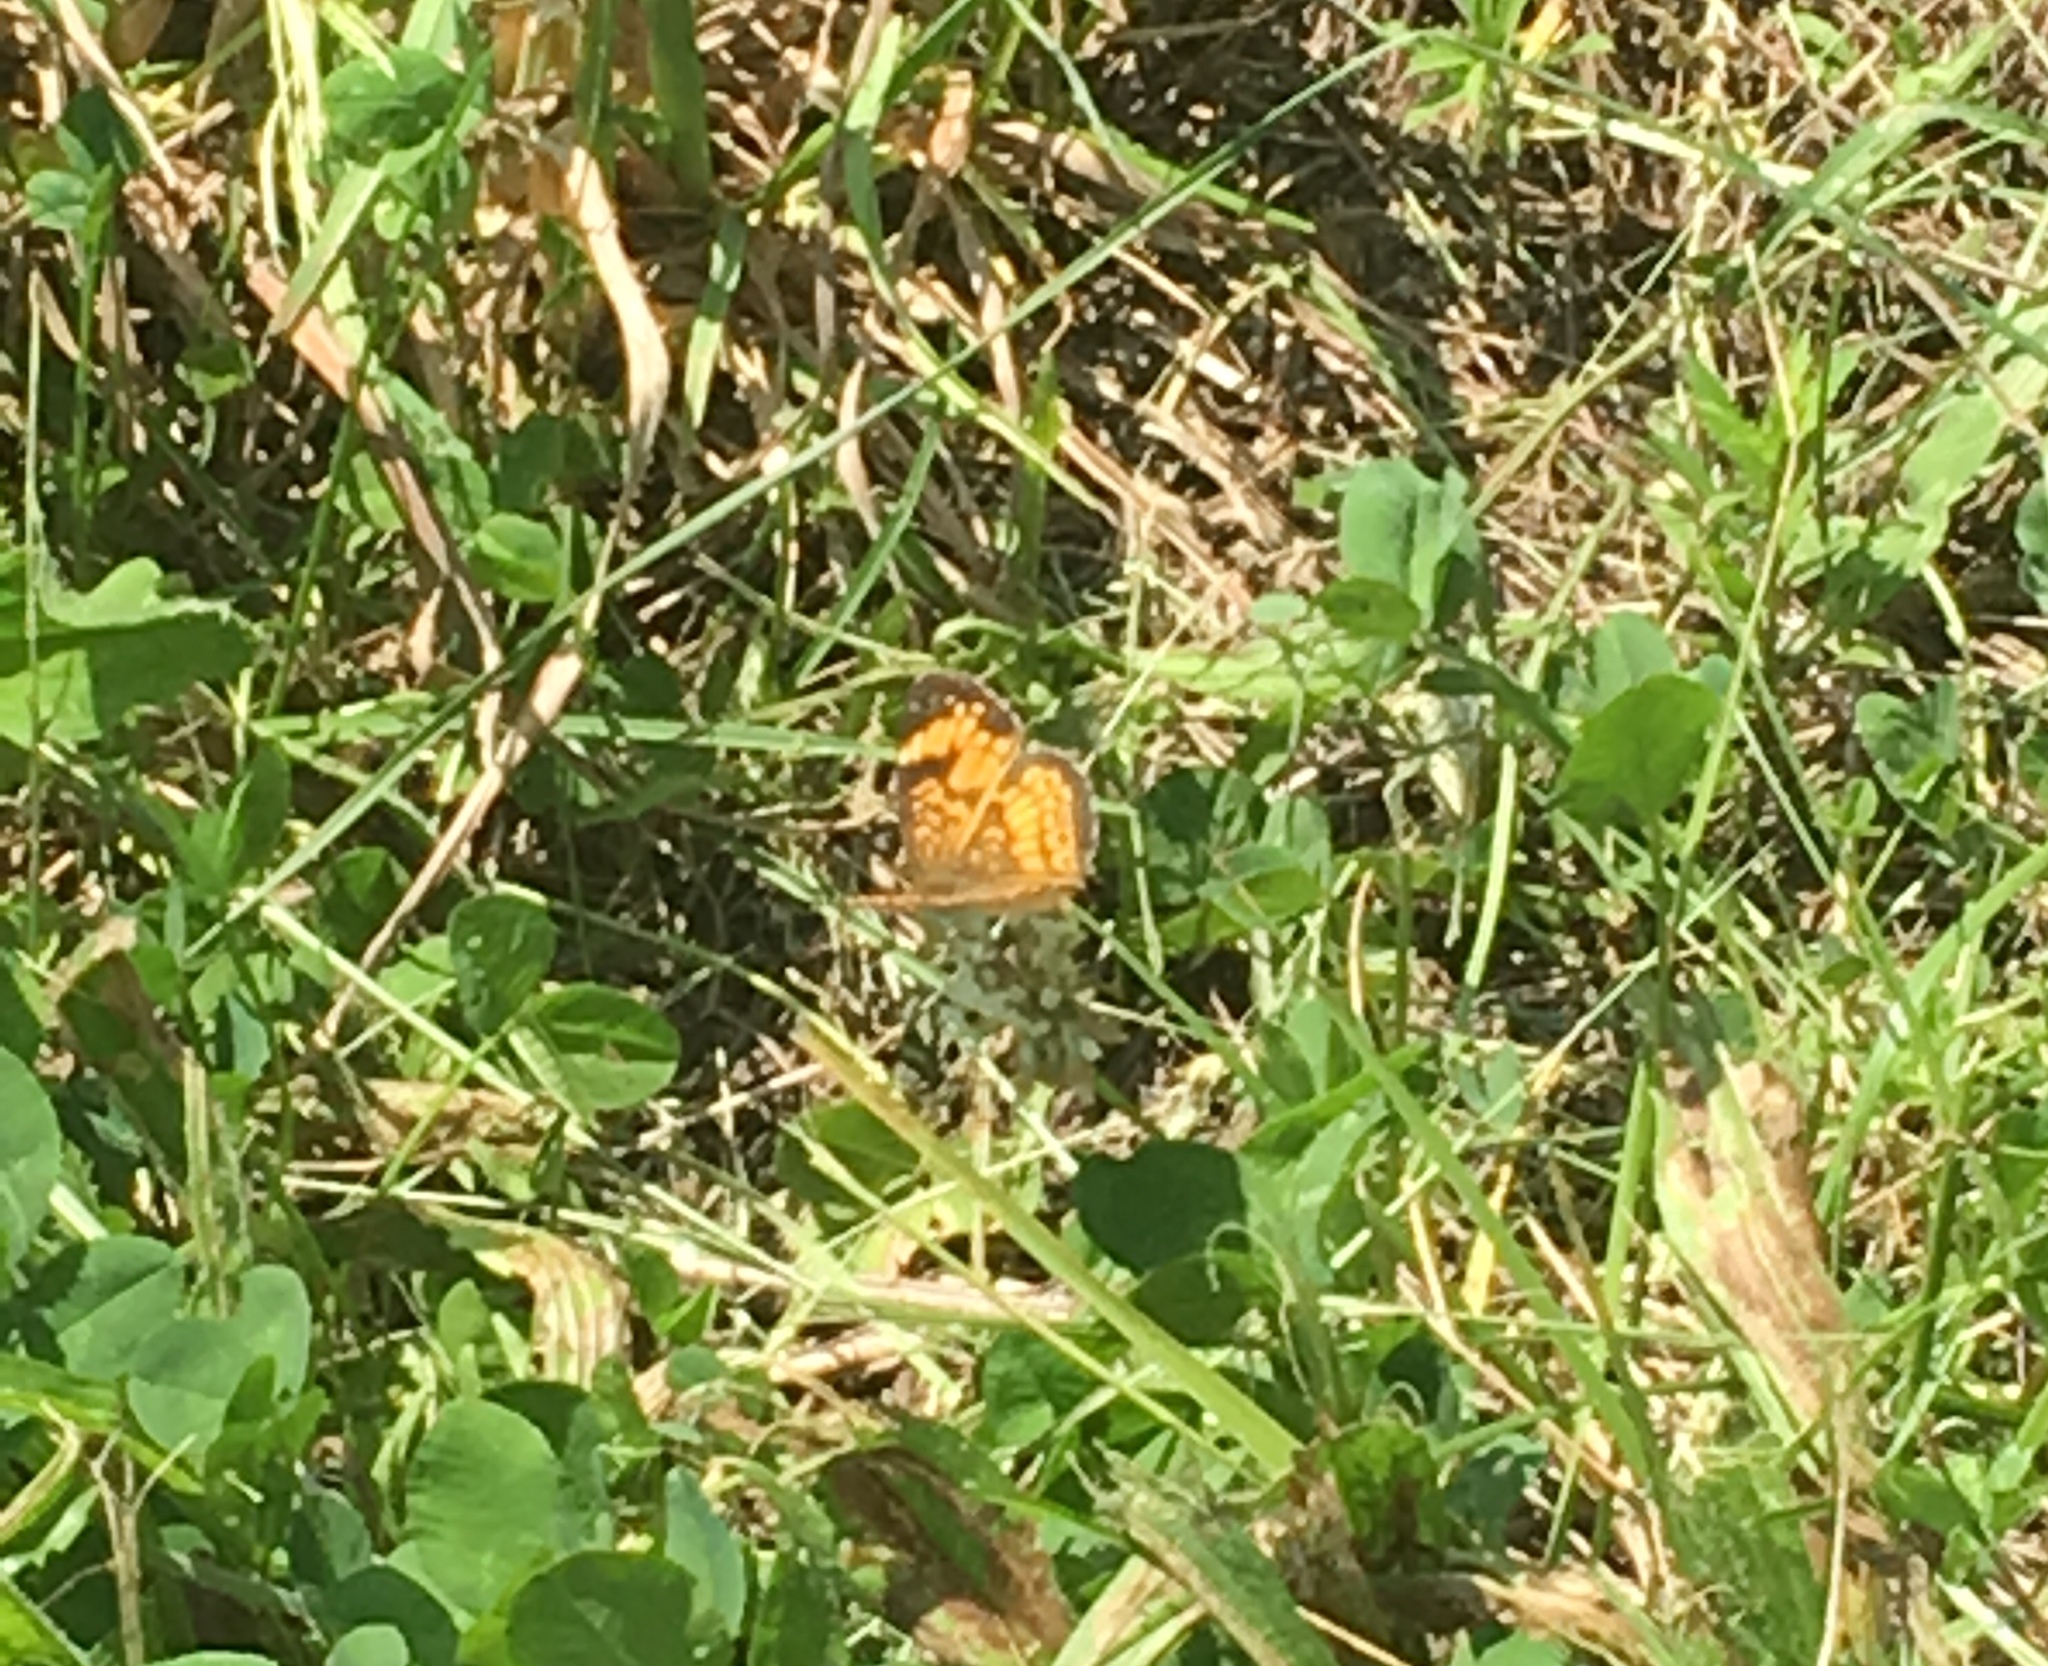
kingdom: Animalia
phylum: Arthropoda
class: Insecta
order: Lepidoptera
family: Nymphalidae
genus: Chlosyne
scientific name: Chlosyne nycteis
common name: Silvery checkerspot
